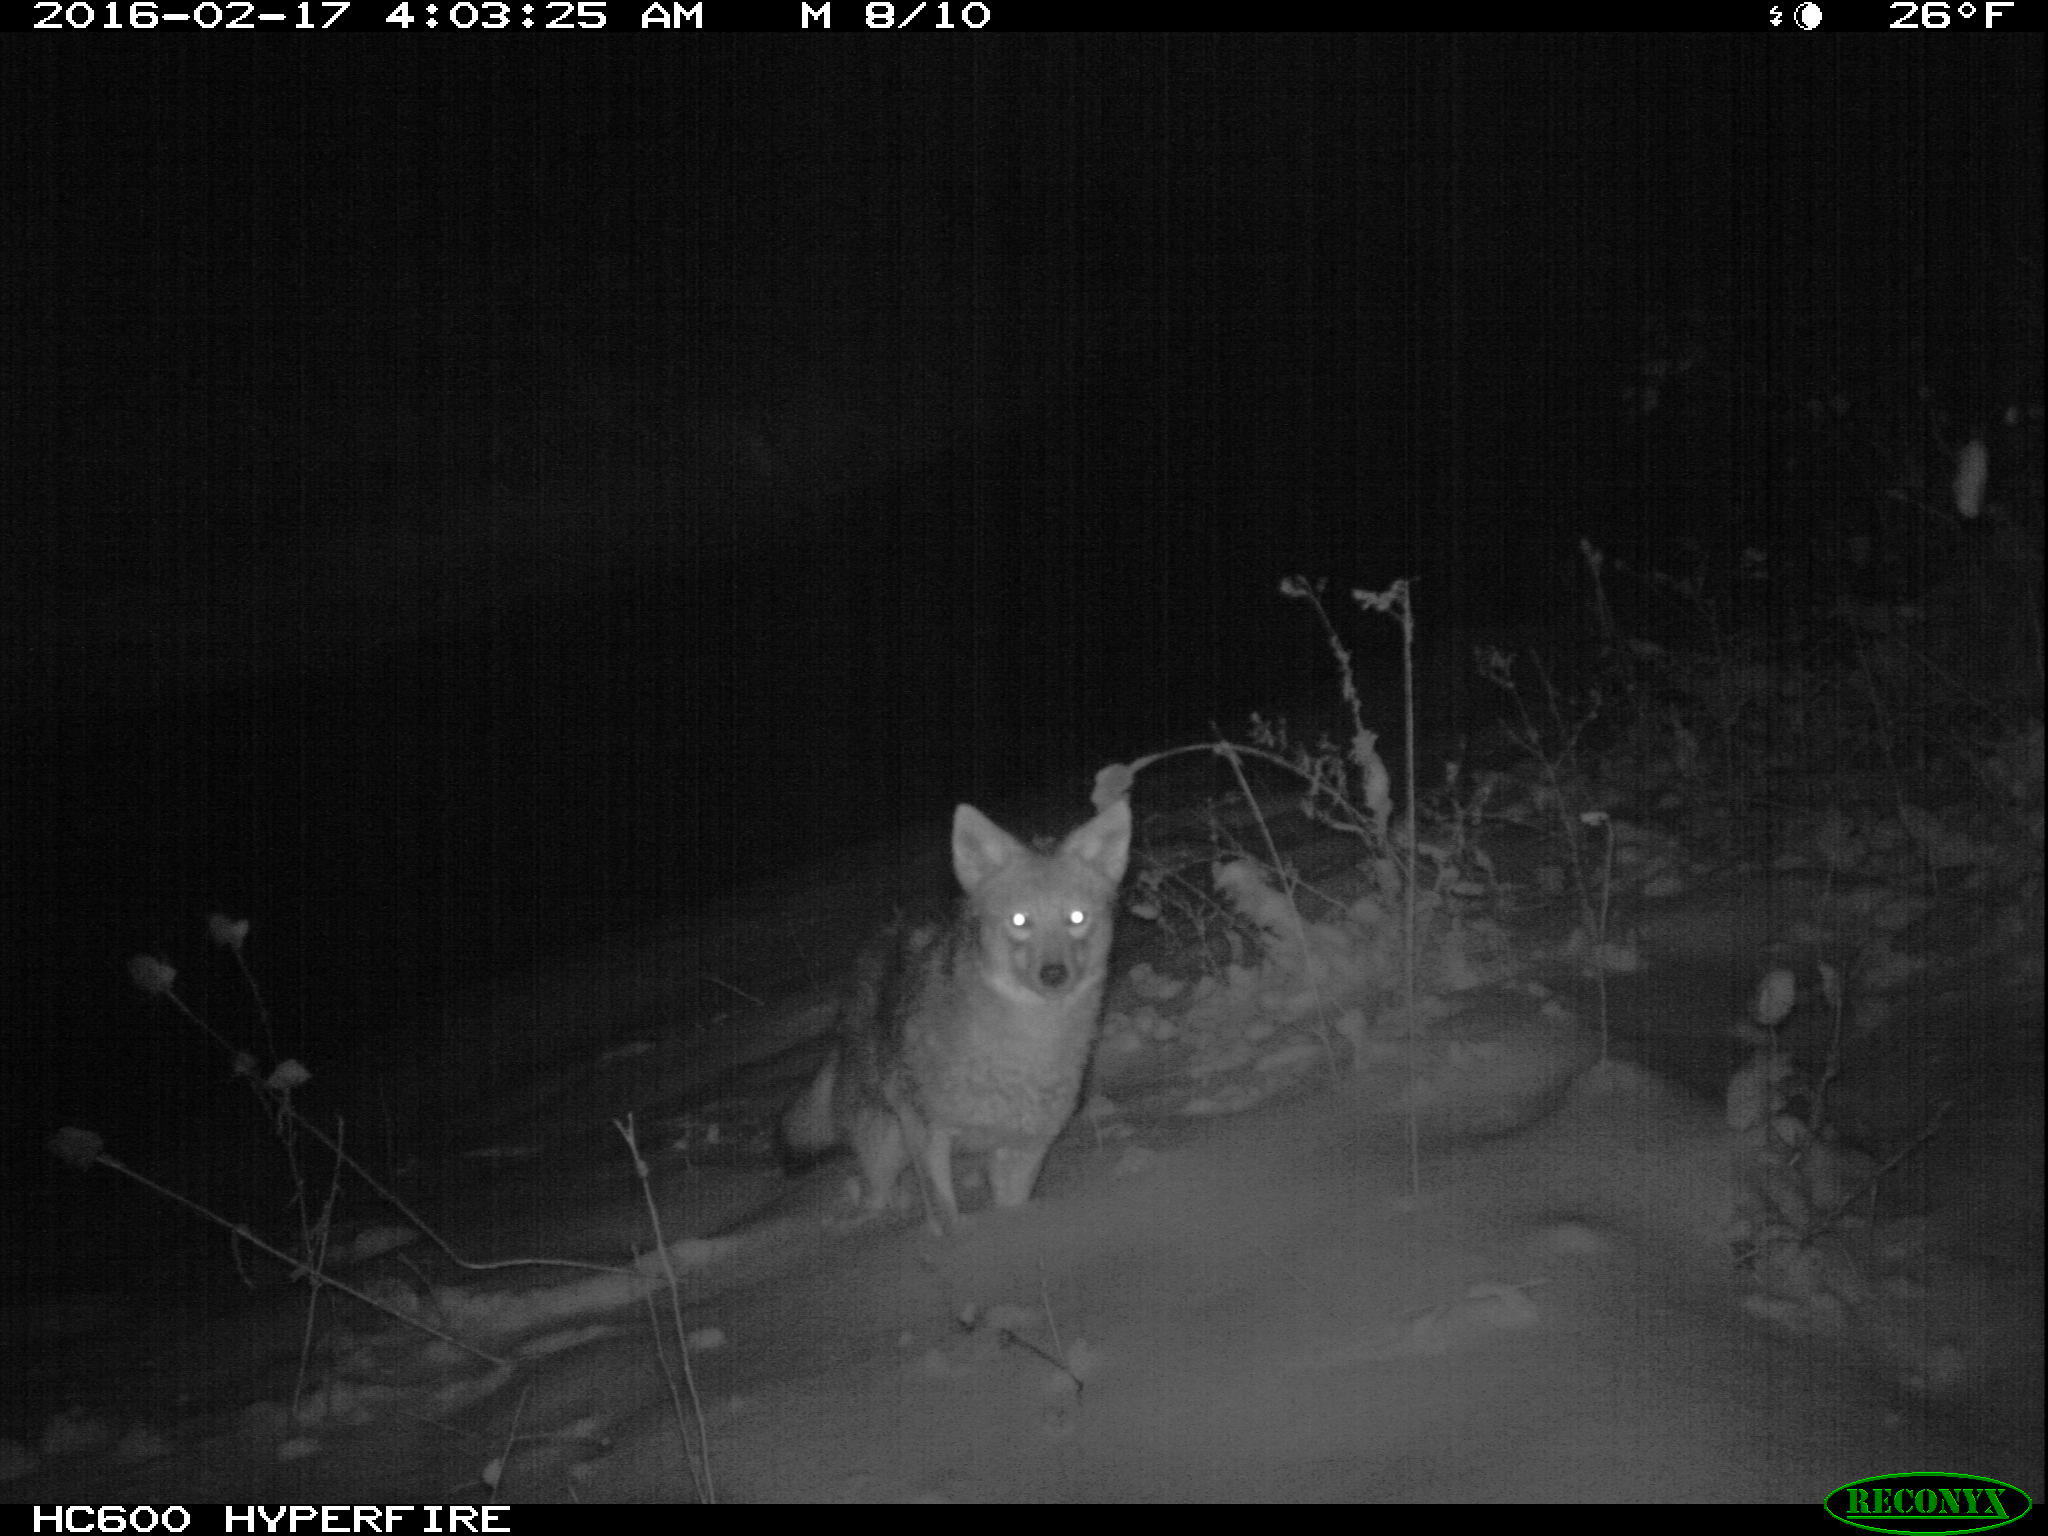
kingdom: Animalia
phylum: Chordata
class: Mammalia
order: Carnivora
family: Canidae
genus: Canis
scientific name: Canis latrans
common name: Coyote
